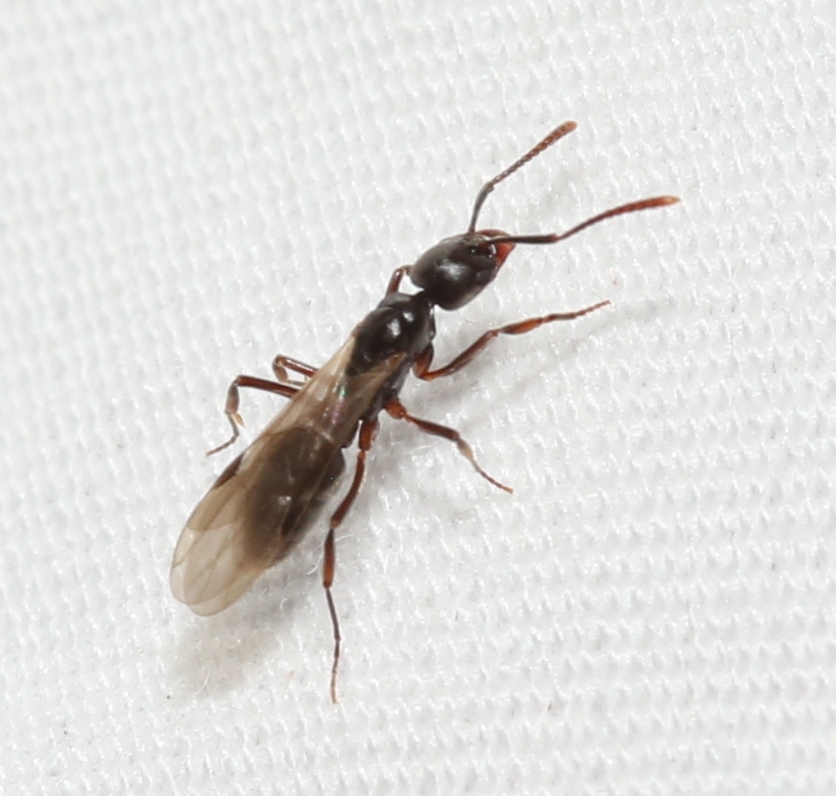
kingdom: Animalia
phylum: Arthropoda
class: Insecta
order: Hymenoptera
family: Formicidae
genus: Pachycondyla
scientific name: Pachycondyla chinensis
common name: Asian needle ant
